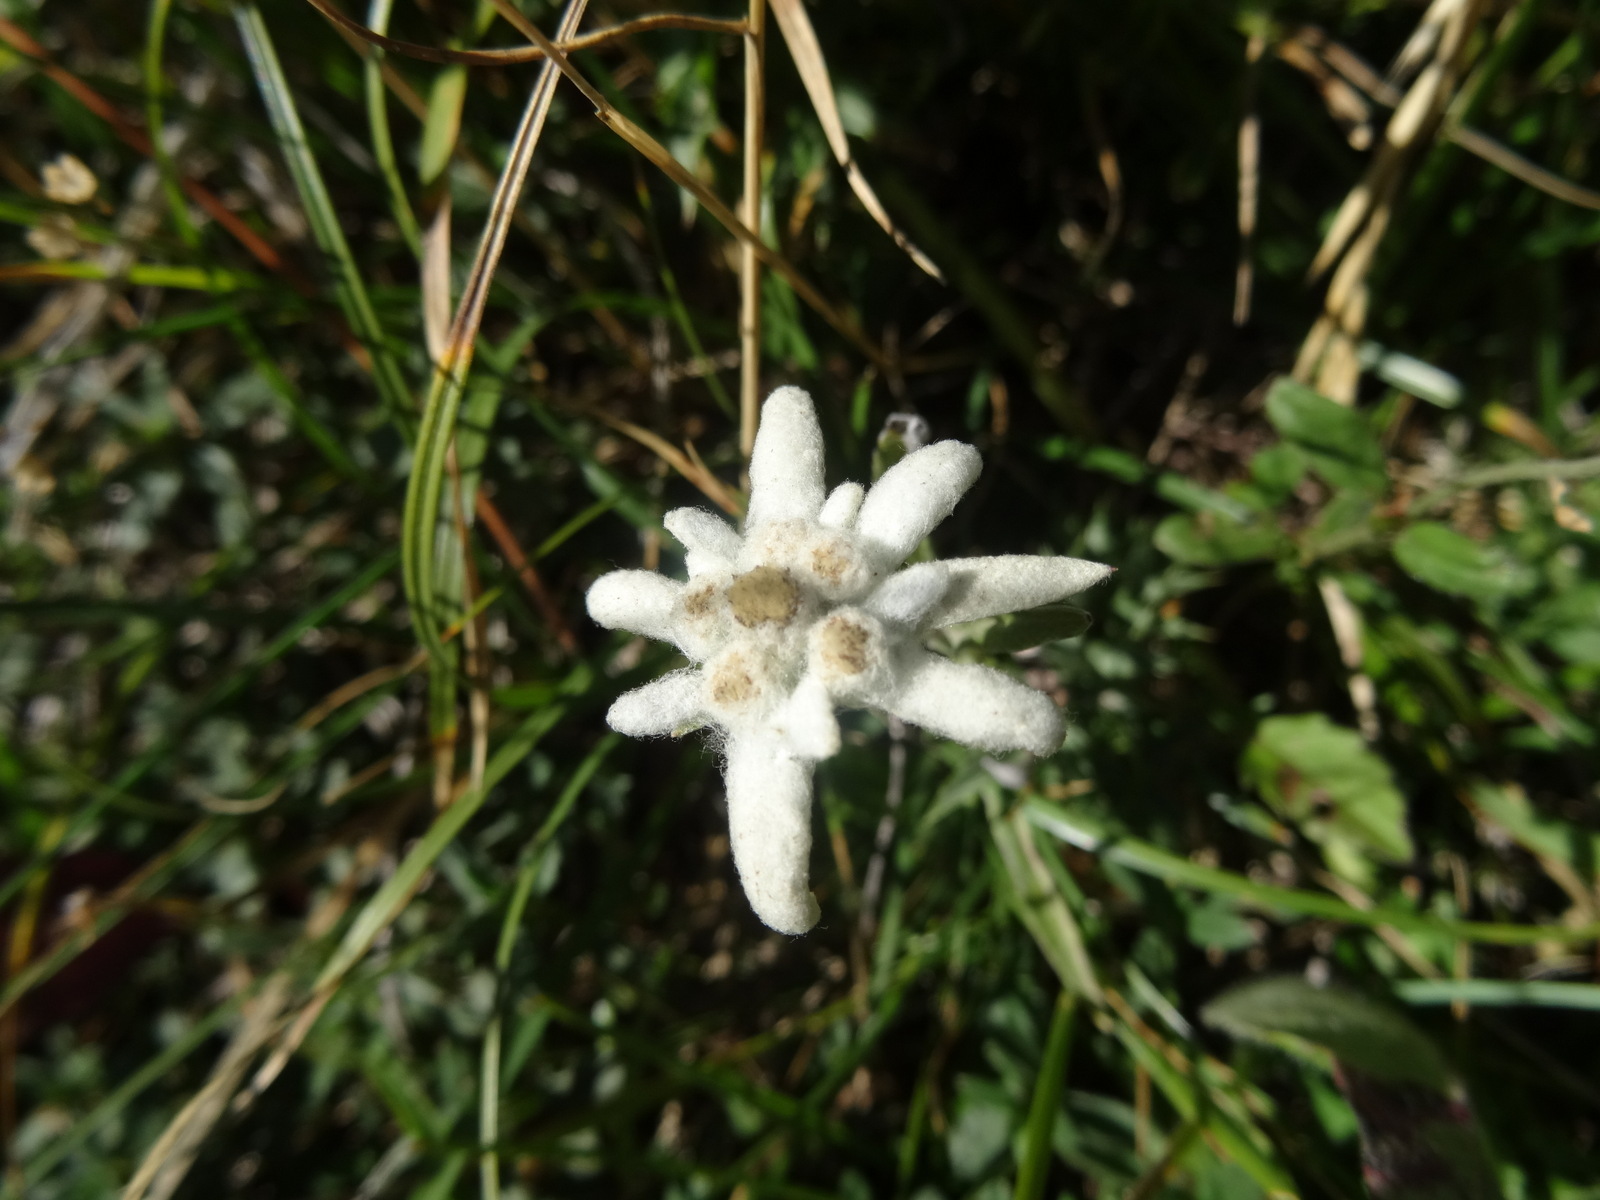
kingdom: Plantae
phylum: Tracheophyta
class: Magnoliopsida
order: Asterales
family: Asteraceae
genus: Leontopodium
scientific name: Leontopodium nivale
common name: Edelweiss
